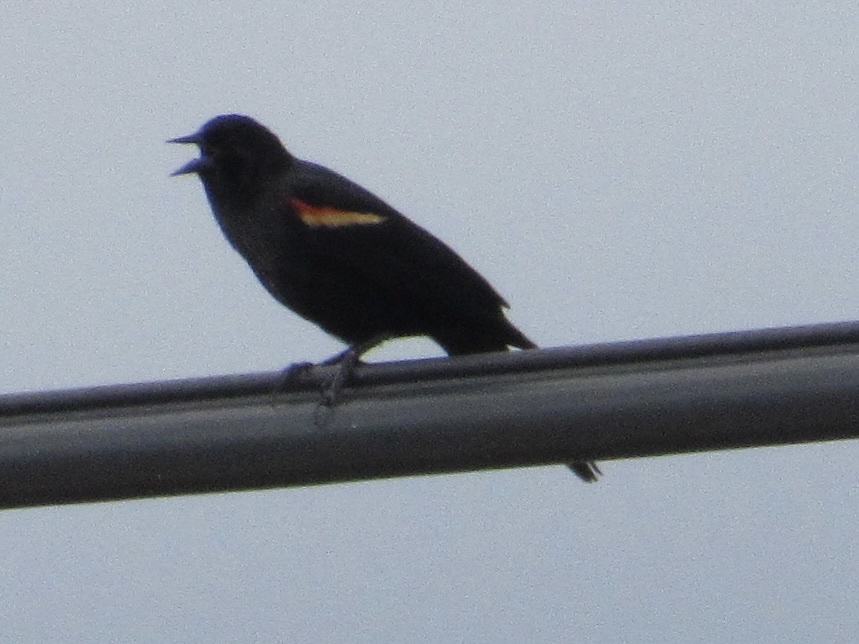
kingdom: Animalia
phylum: Chordata
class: Aves
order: Passeriformes
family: Icteridae
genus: Agelaius
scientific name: Agelaius phoeniceus
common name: Red-winged blackbird
